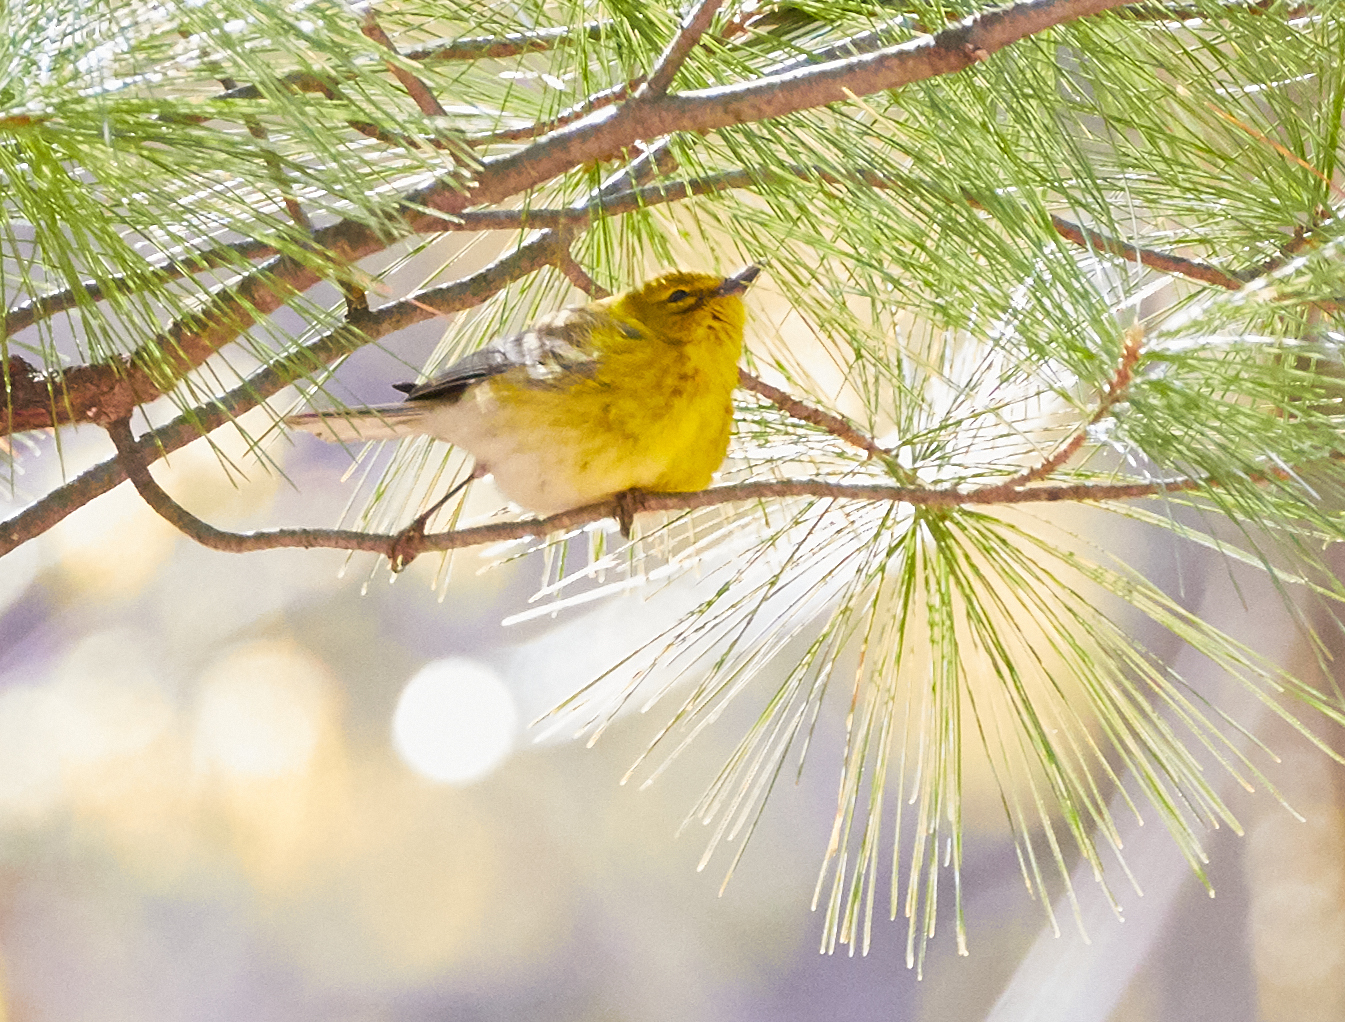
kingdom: Animalia
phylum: Chordata
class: Aves
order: Passeriformes
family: Parulidae
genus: Setophaga
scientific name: Setophaga pinus
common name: Pine warbler
